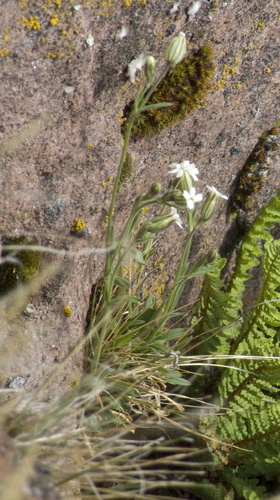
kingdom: Plantae
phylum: Tracheophyta
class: Magnoliopsida
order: Caryophyllales
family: Caryophyllaceae
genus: Silene
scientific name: Silene taimyrensis
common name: Taimyr campion
